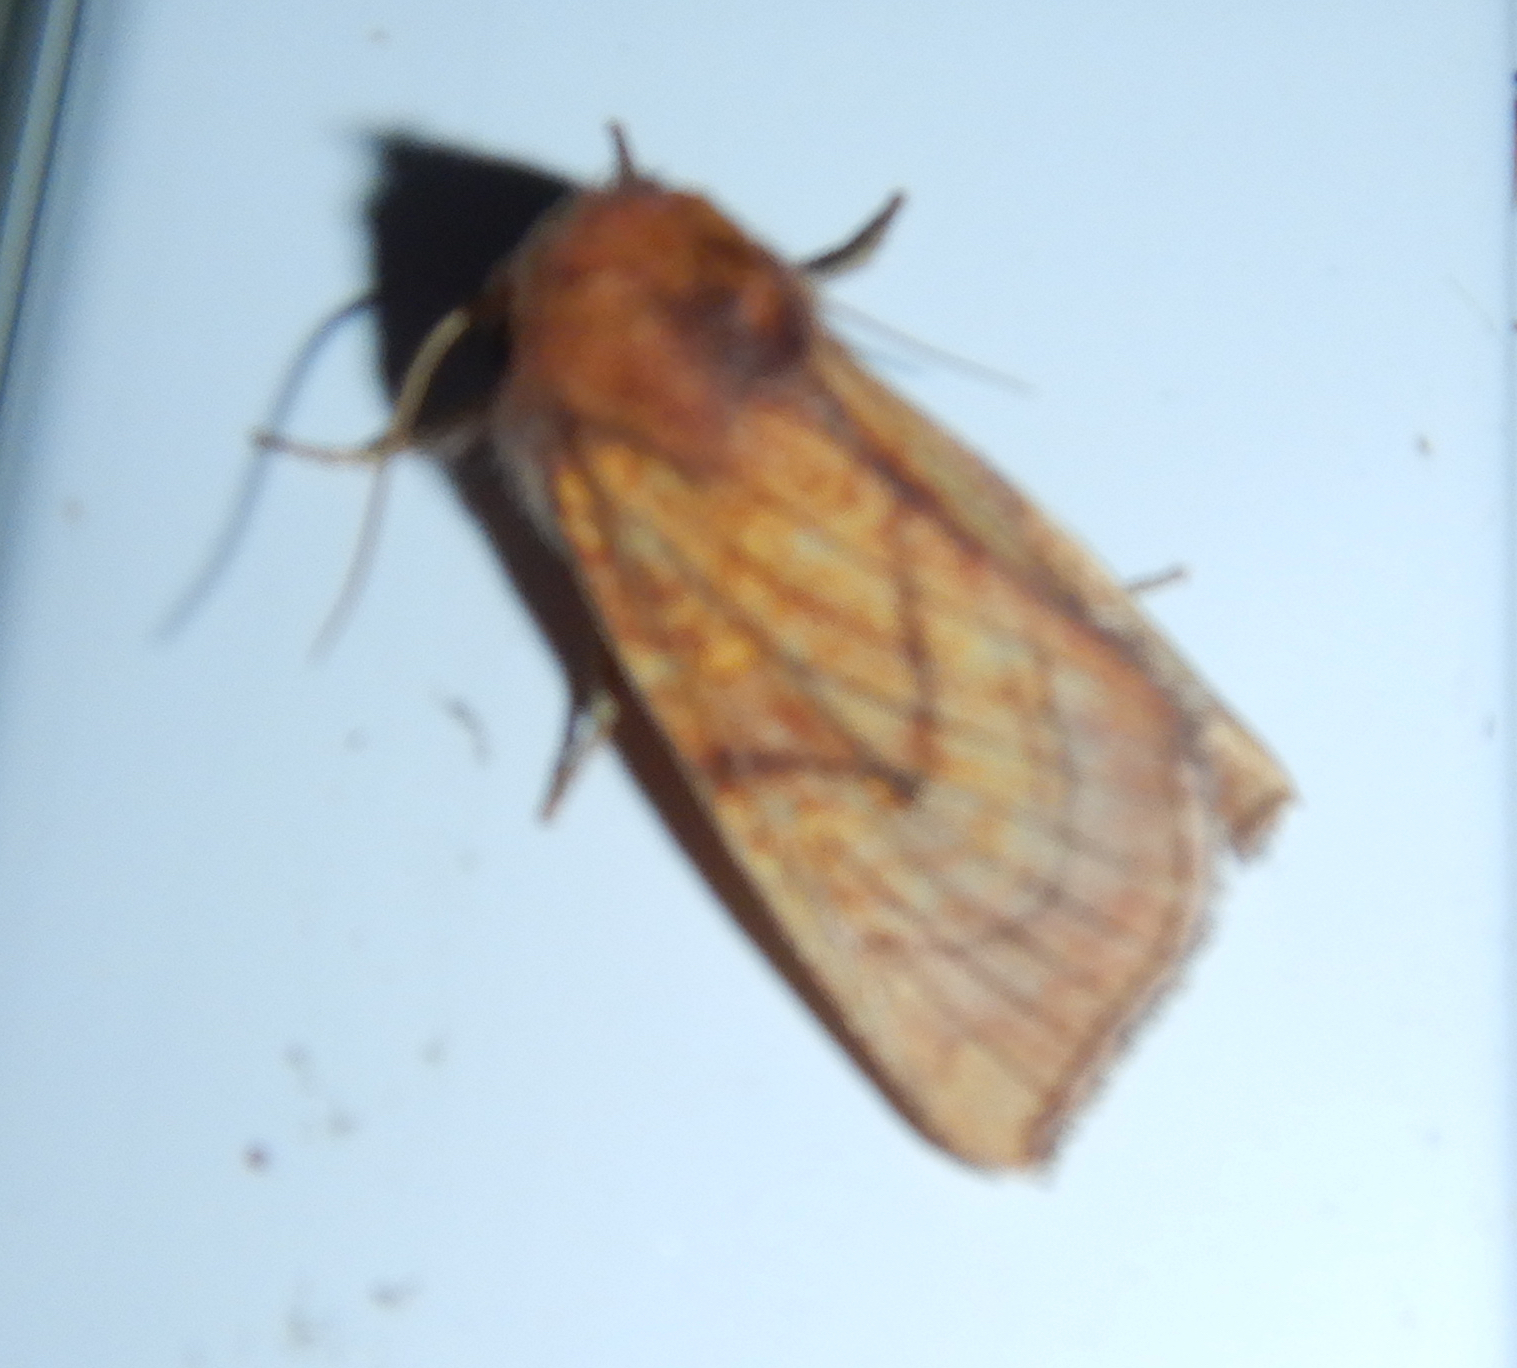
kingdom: Animalia
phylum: Arthropoda
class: Insecta
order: Lepidoptera
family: Noctuidae
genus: Papaipema
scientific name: Papaipema inquaesita
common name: Sensitive fern borer moth
